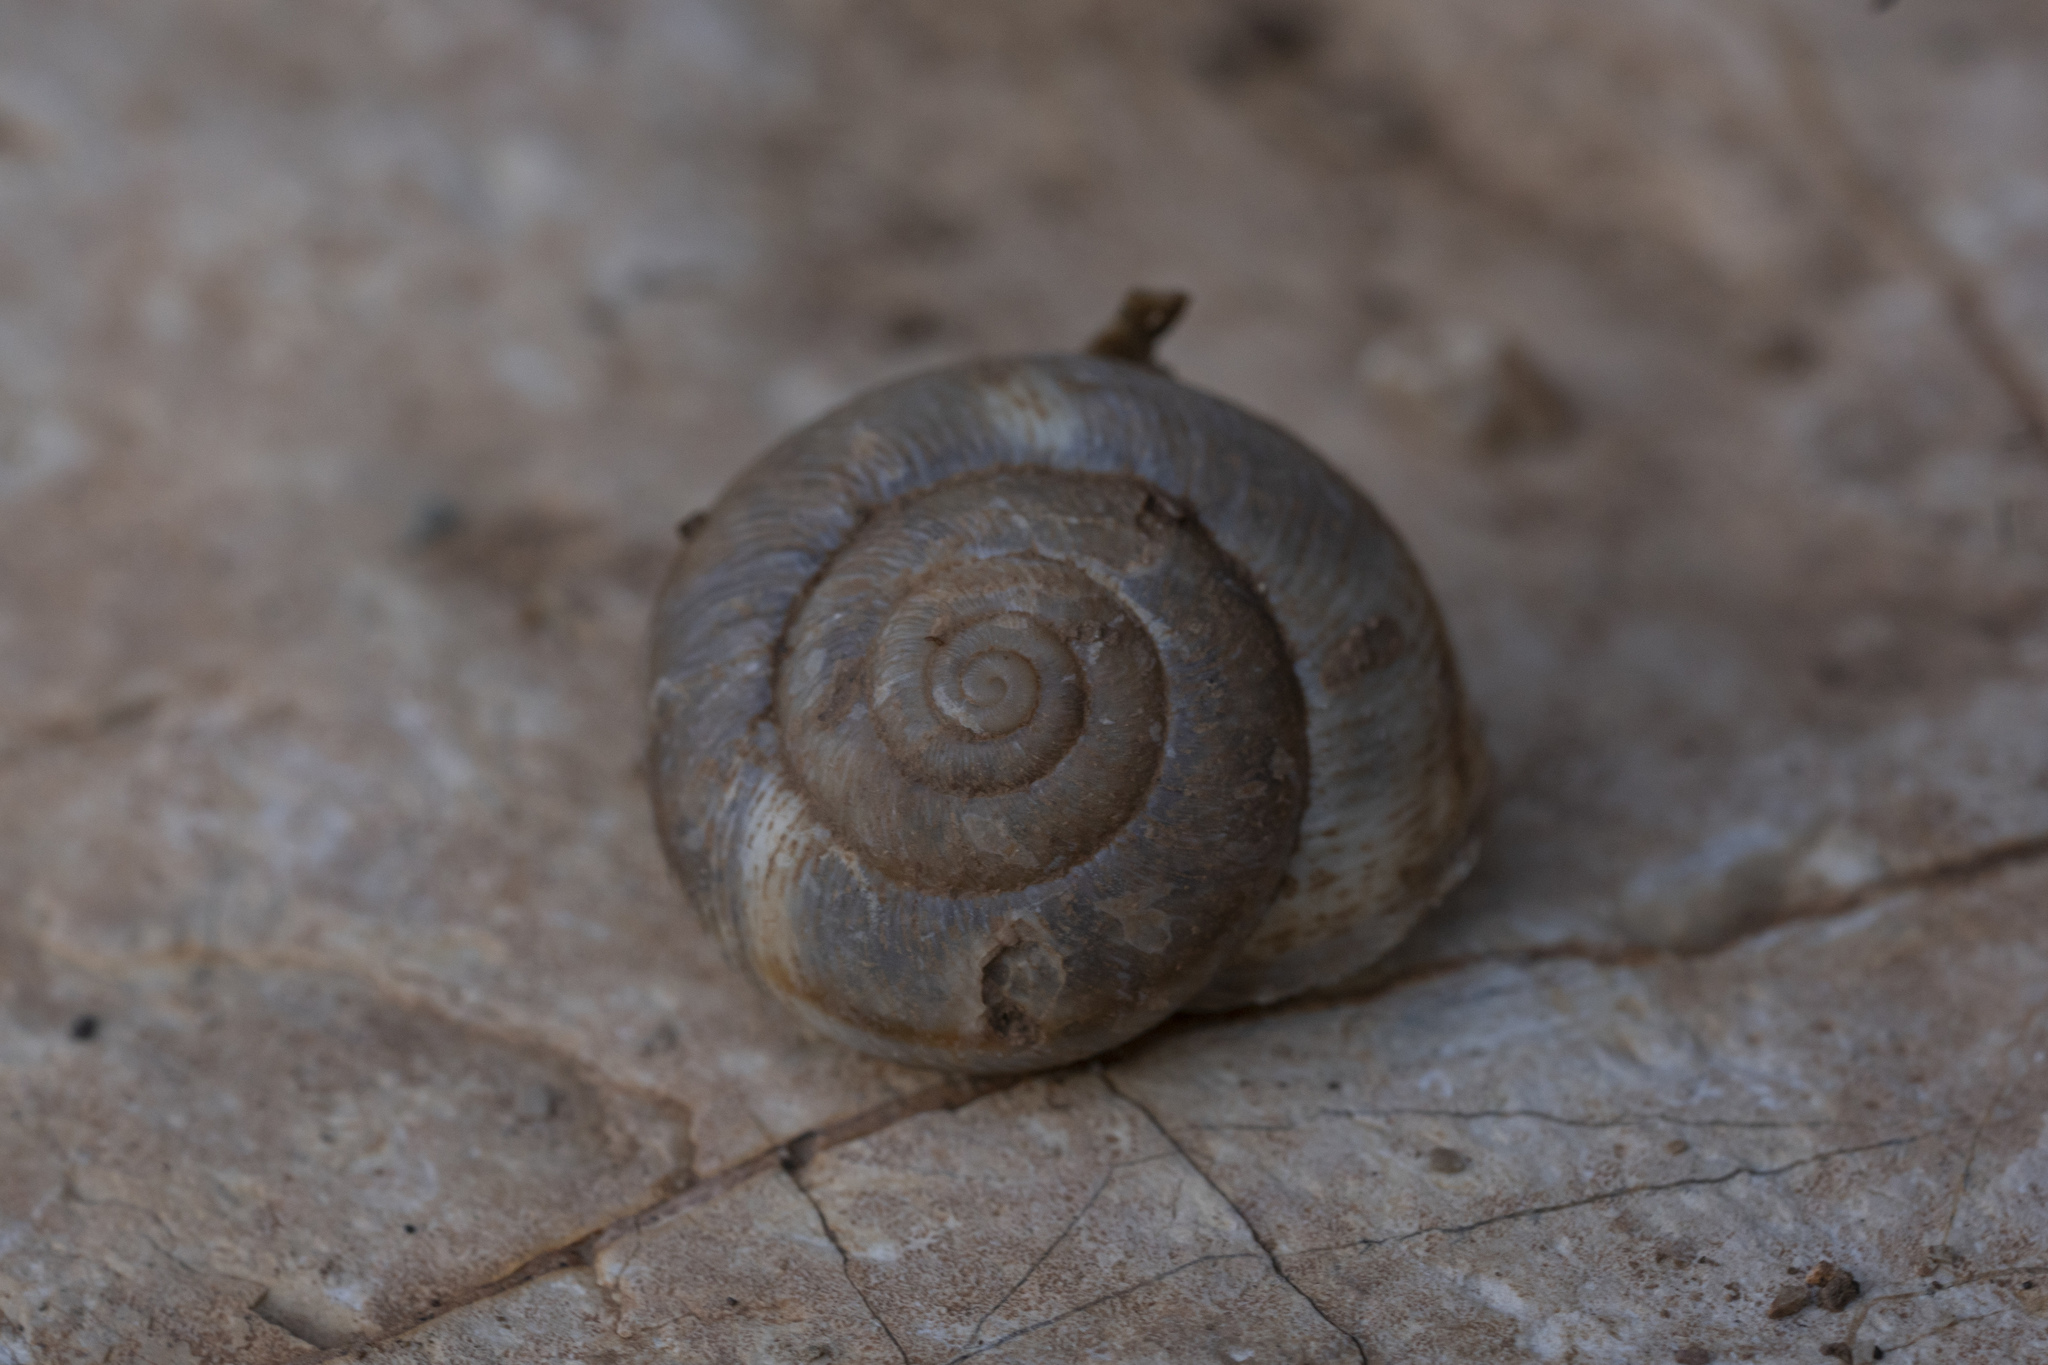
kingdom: Animalia
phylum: Mollusca
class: Gastropoda
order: Stylommatophora
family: Hygromiidae
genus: Metafruticicola
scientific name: Metafruticicola pellita
